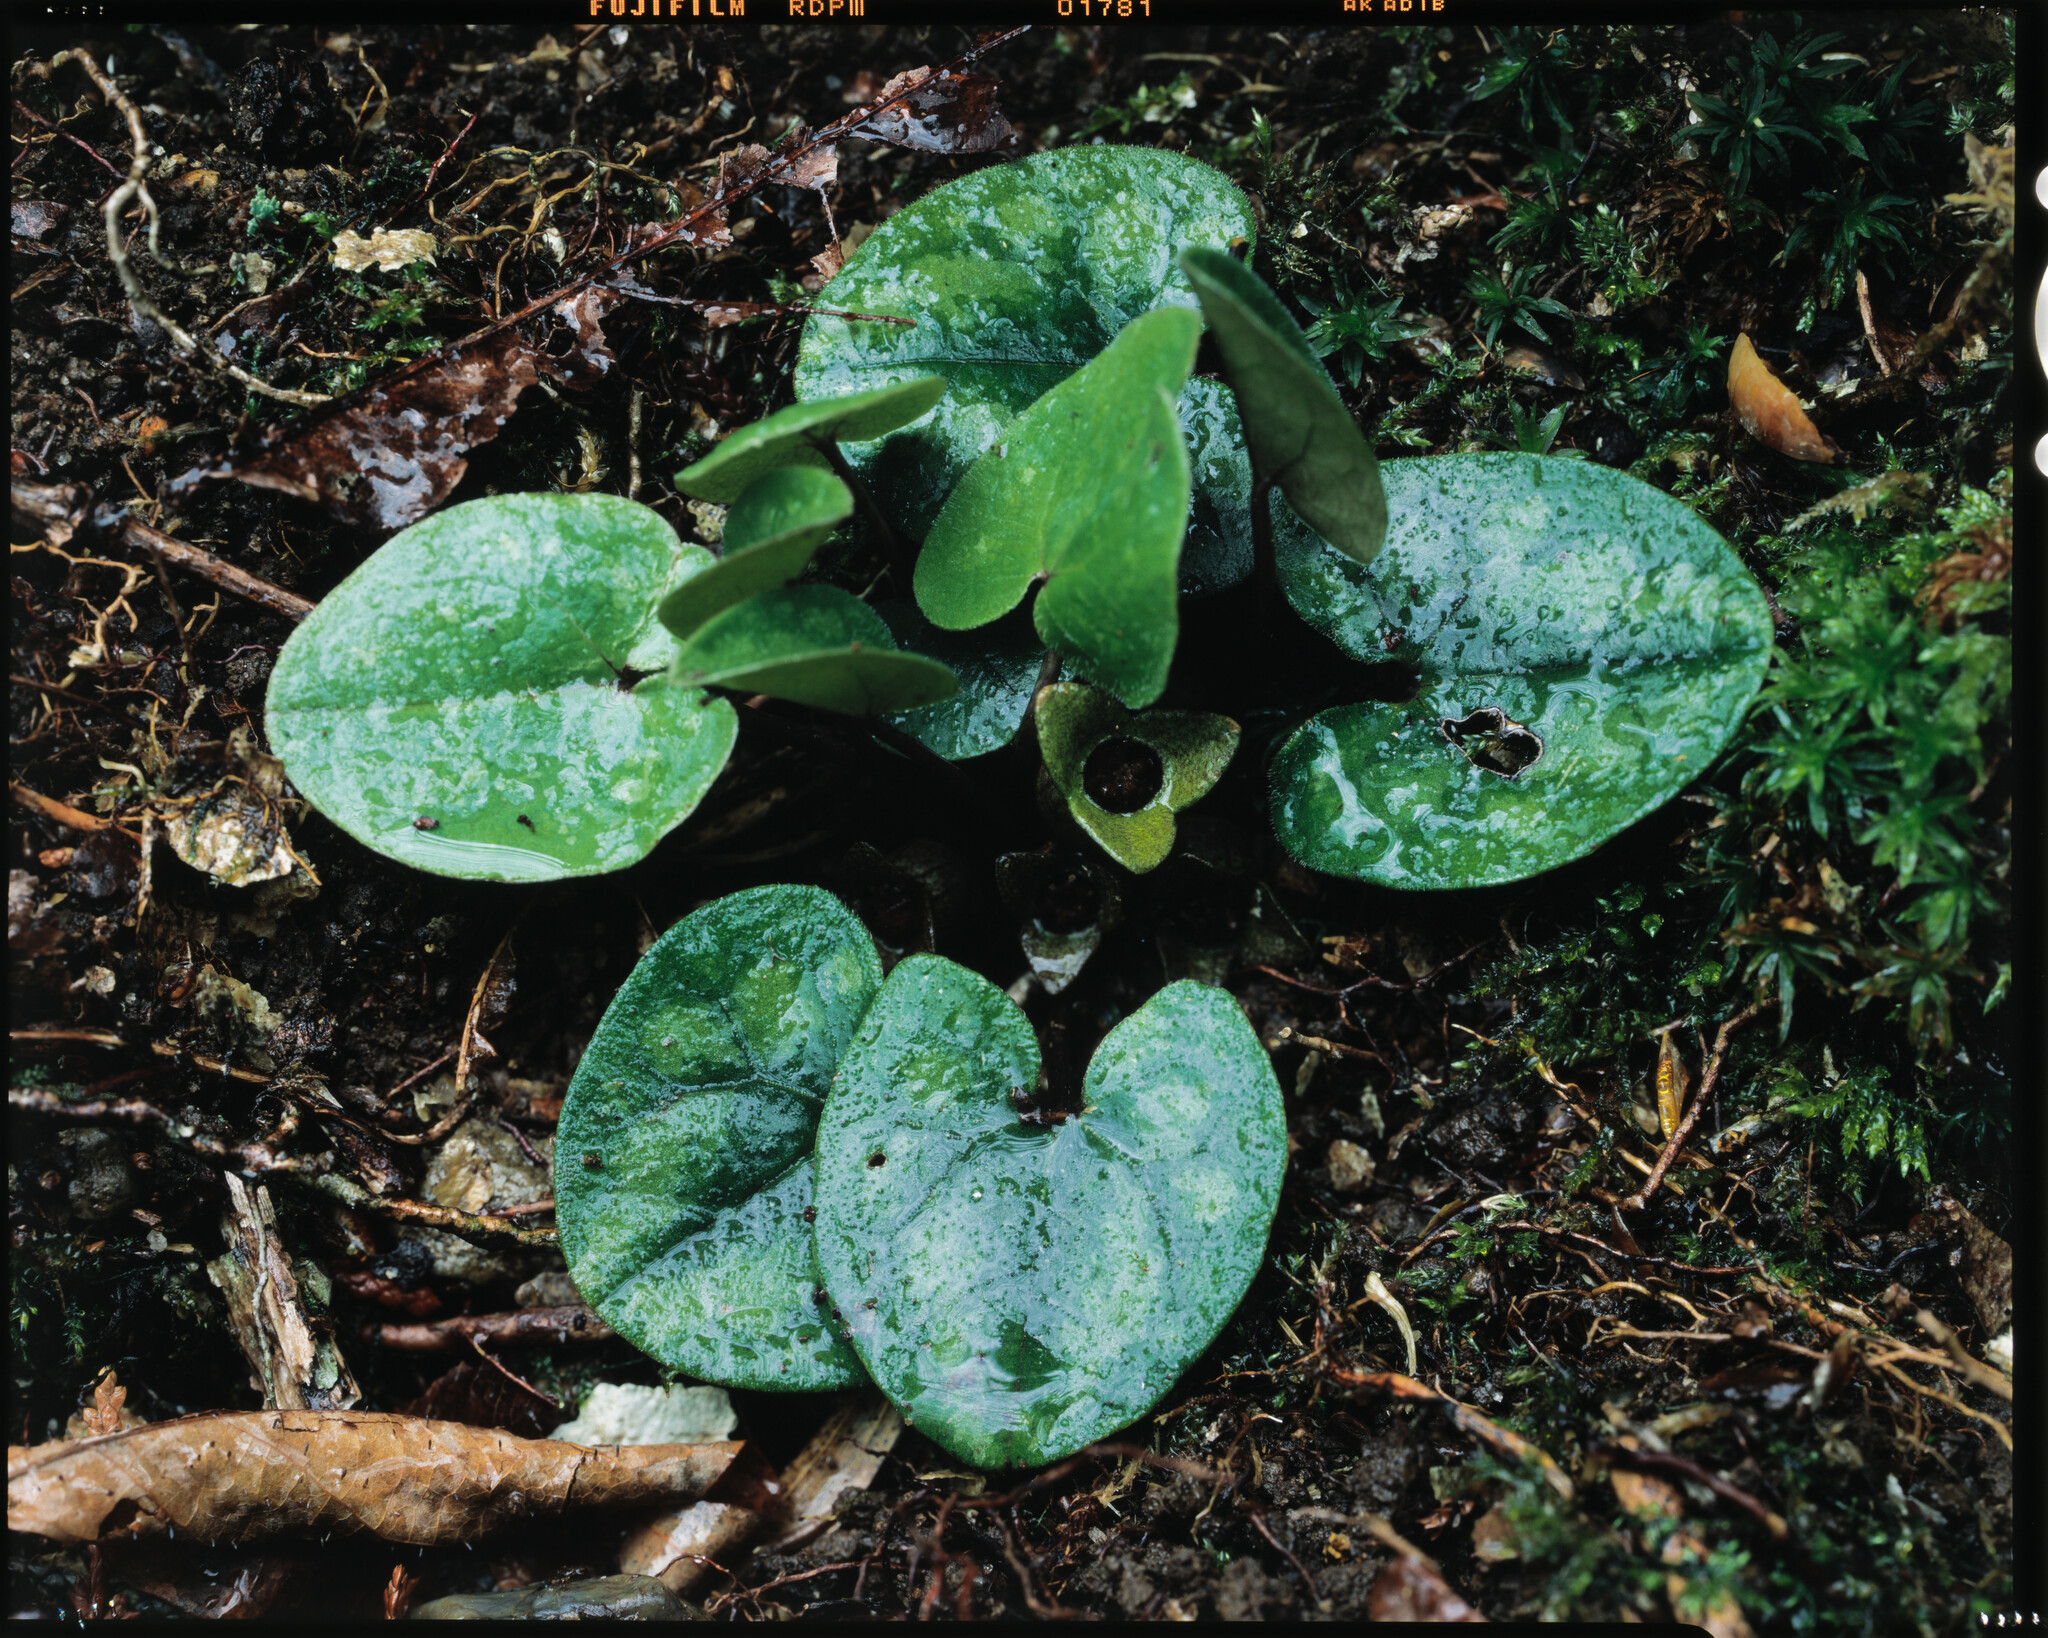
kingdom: Plantae
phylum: Tracheophyta
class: Magnoliopsida
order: Piperales
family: Aristolochiaceae
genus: Asarum
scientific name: Asarum fauriei
